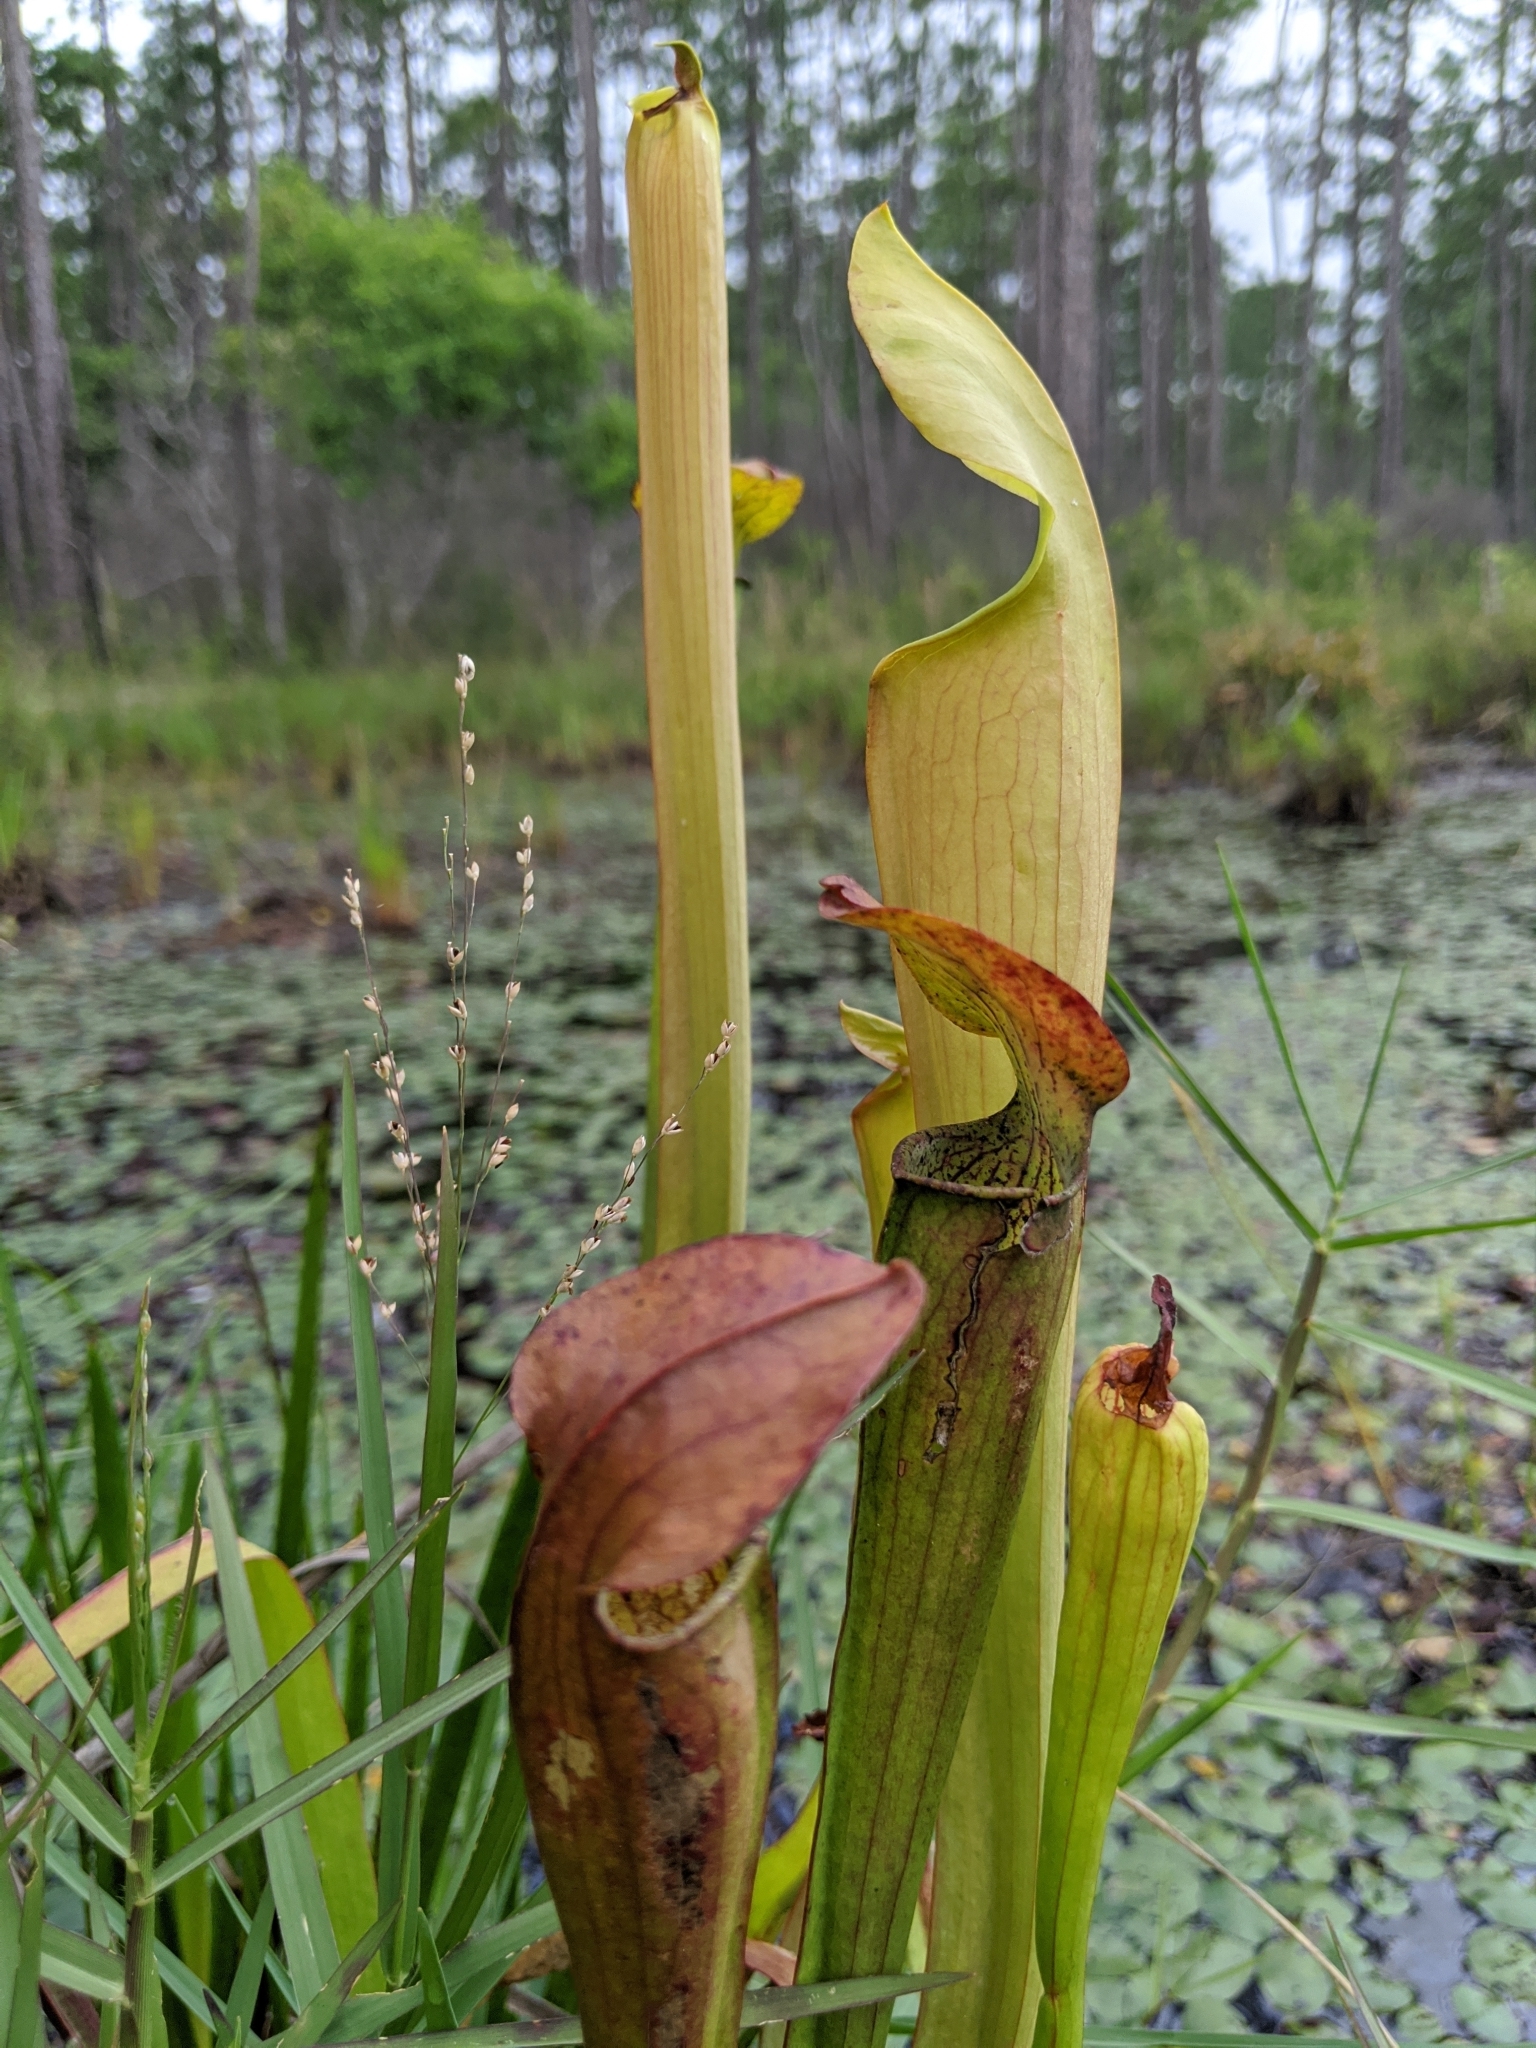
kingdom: Plantae
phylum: Tracheophyta
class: Magnoliopsida
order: Ericales
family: Sarraceniaceae
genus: Sarracenia
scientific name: Sarracenia alata
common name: Yellow trumpets
